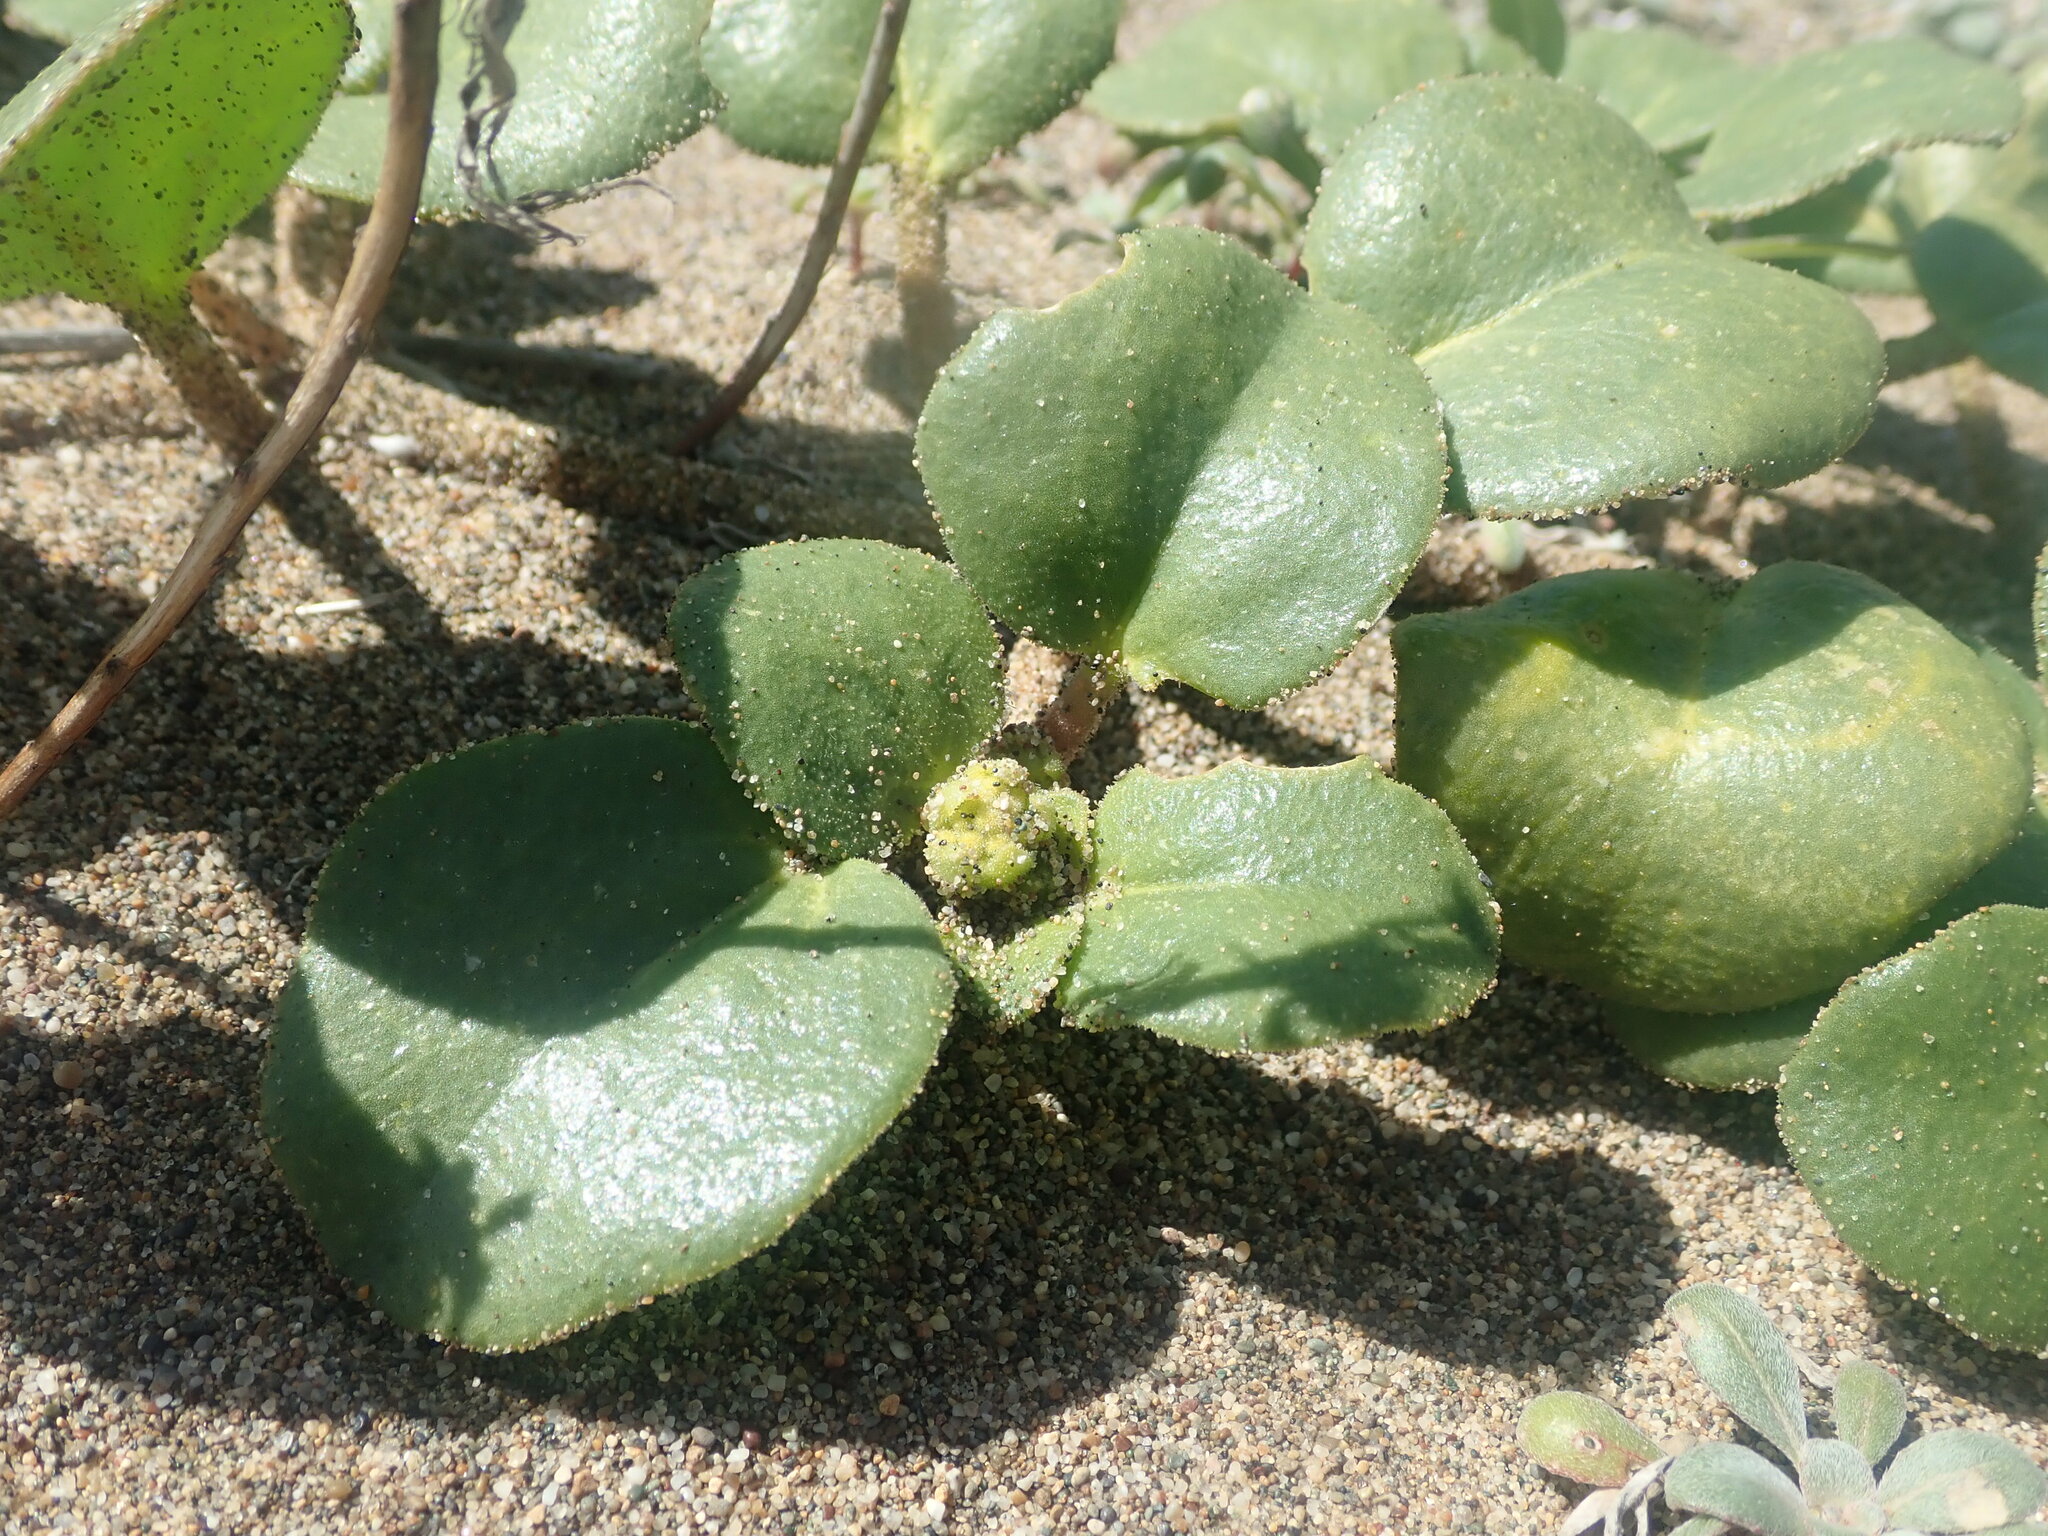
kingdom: Plantae
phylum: Tracheophyta
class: Magnoliopsida
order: Caryophyllales
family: Nyctaginaceae
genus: Abronia
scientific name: Abronia latifolia
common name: Yellow sand-verbena
